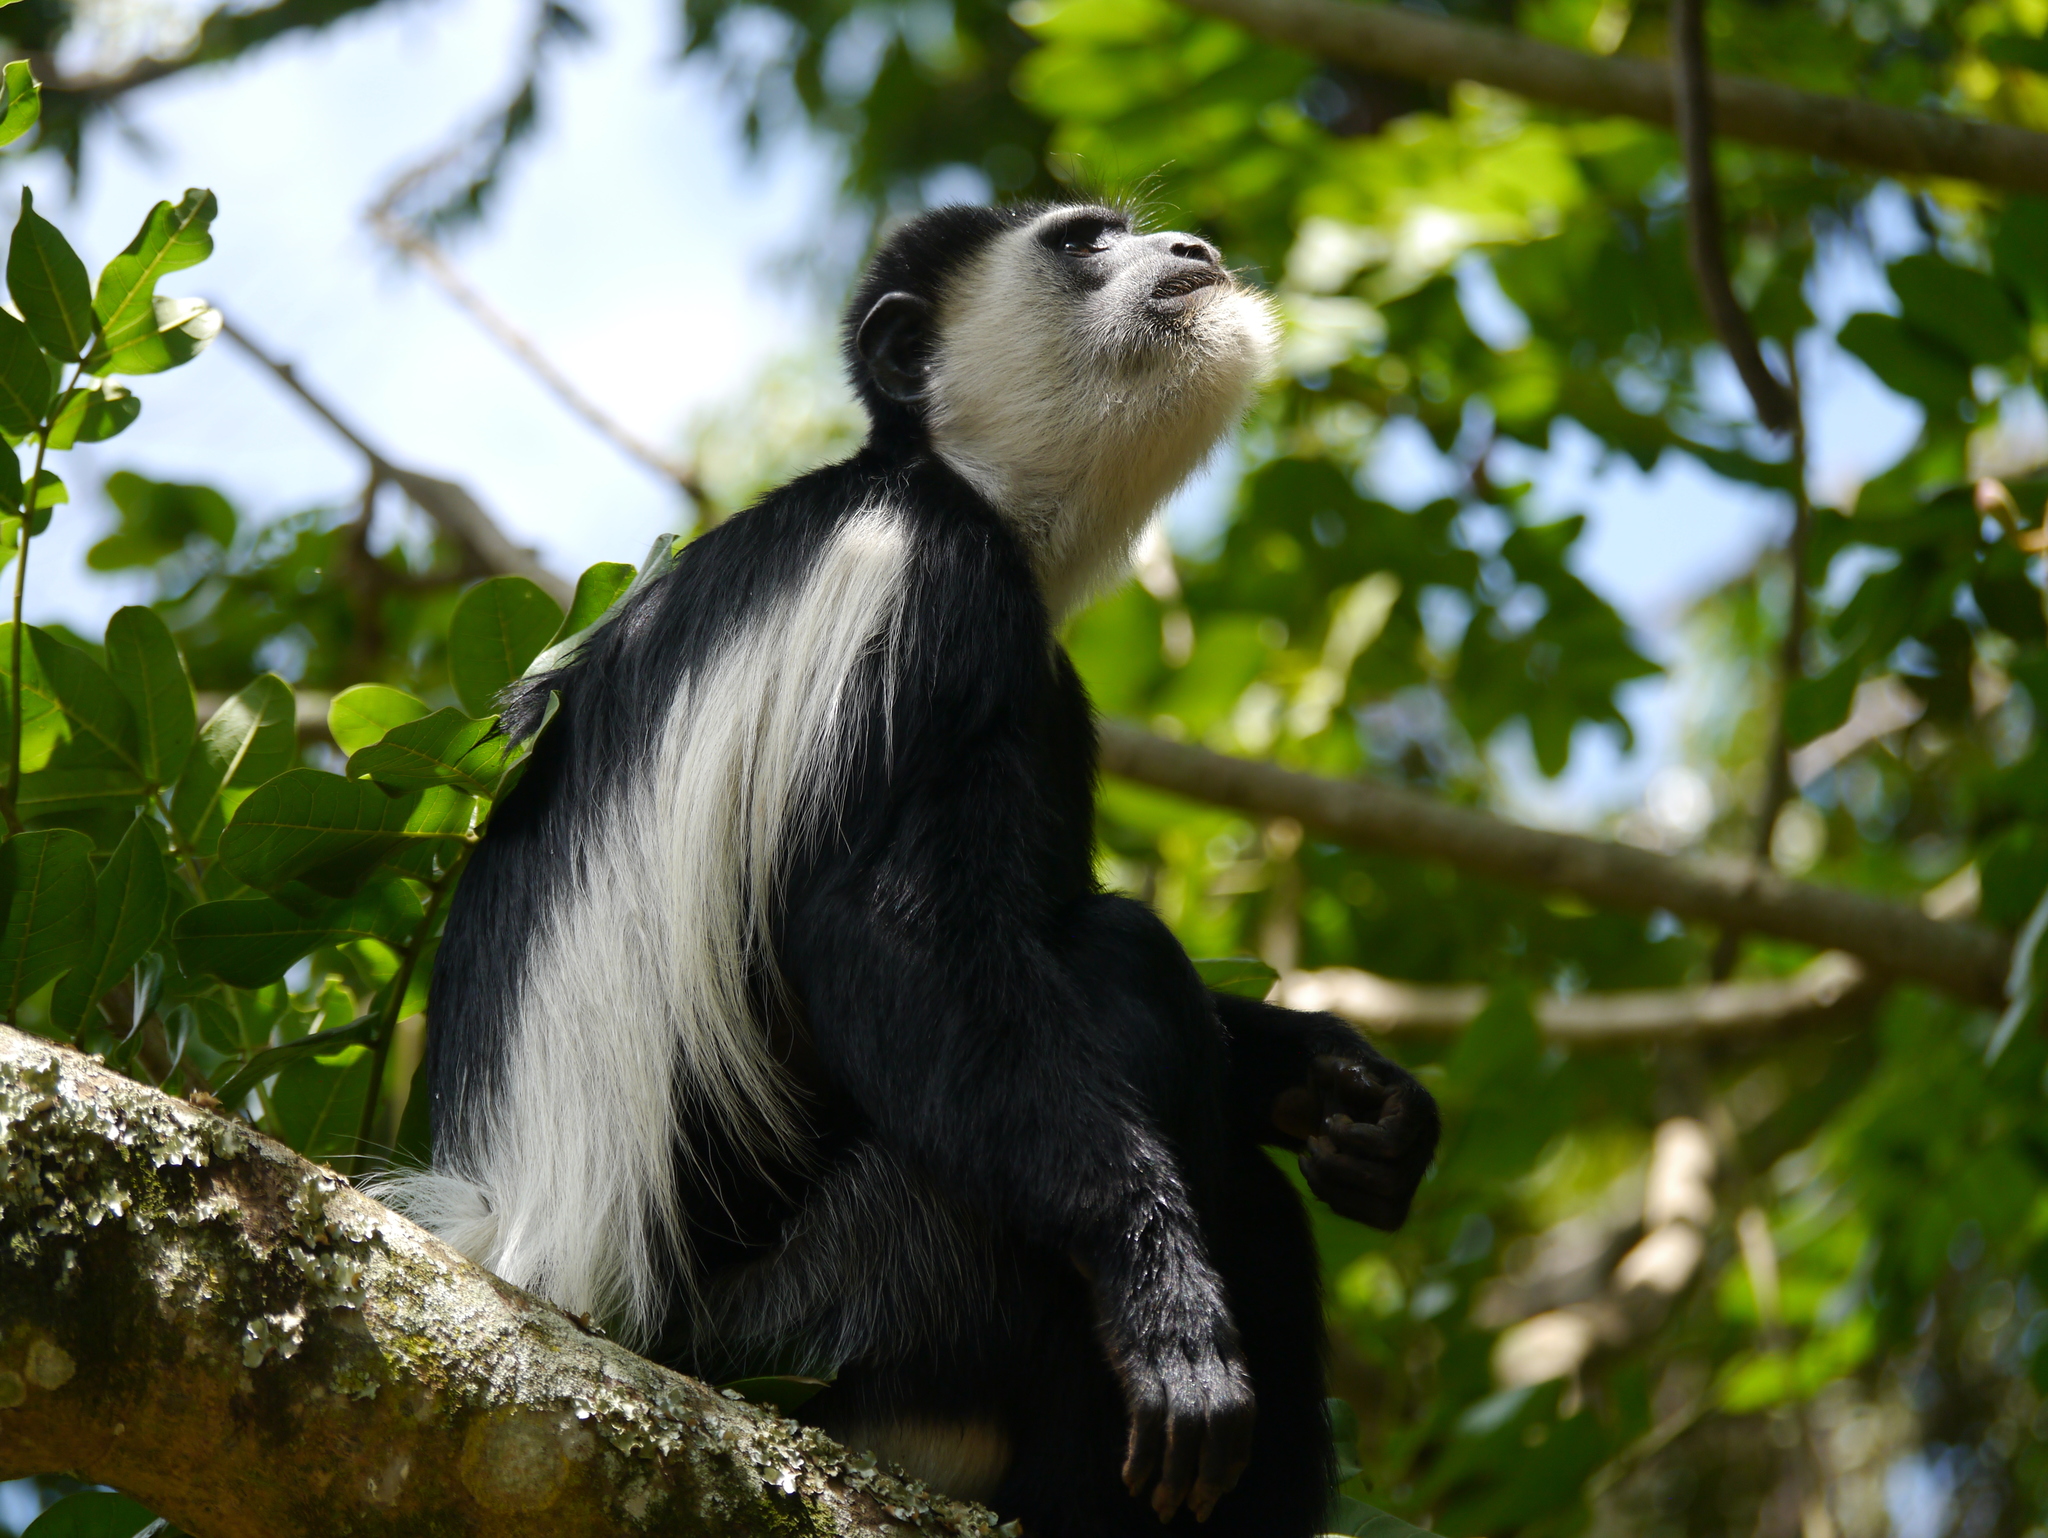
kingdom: Animalia
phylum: Chordata
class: Mammalia
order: Primates
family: Cercopithecidae
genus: Colobus
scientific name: Colobus guereza
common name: Mantled guereza
